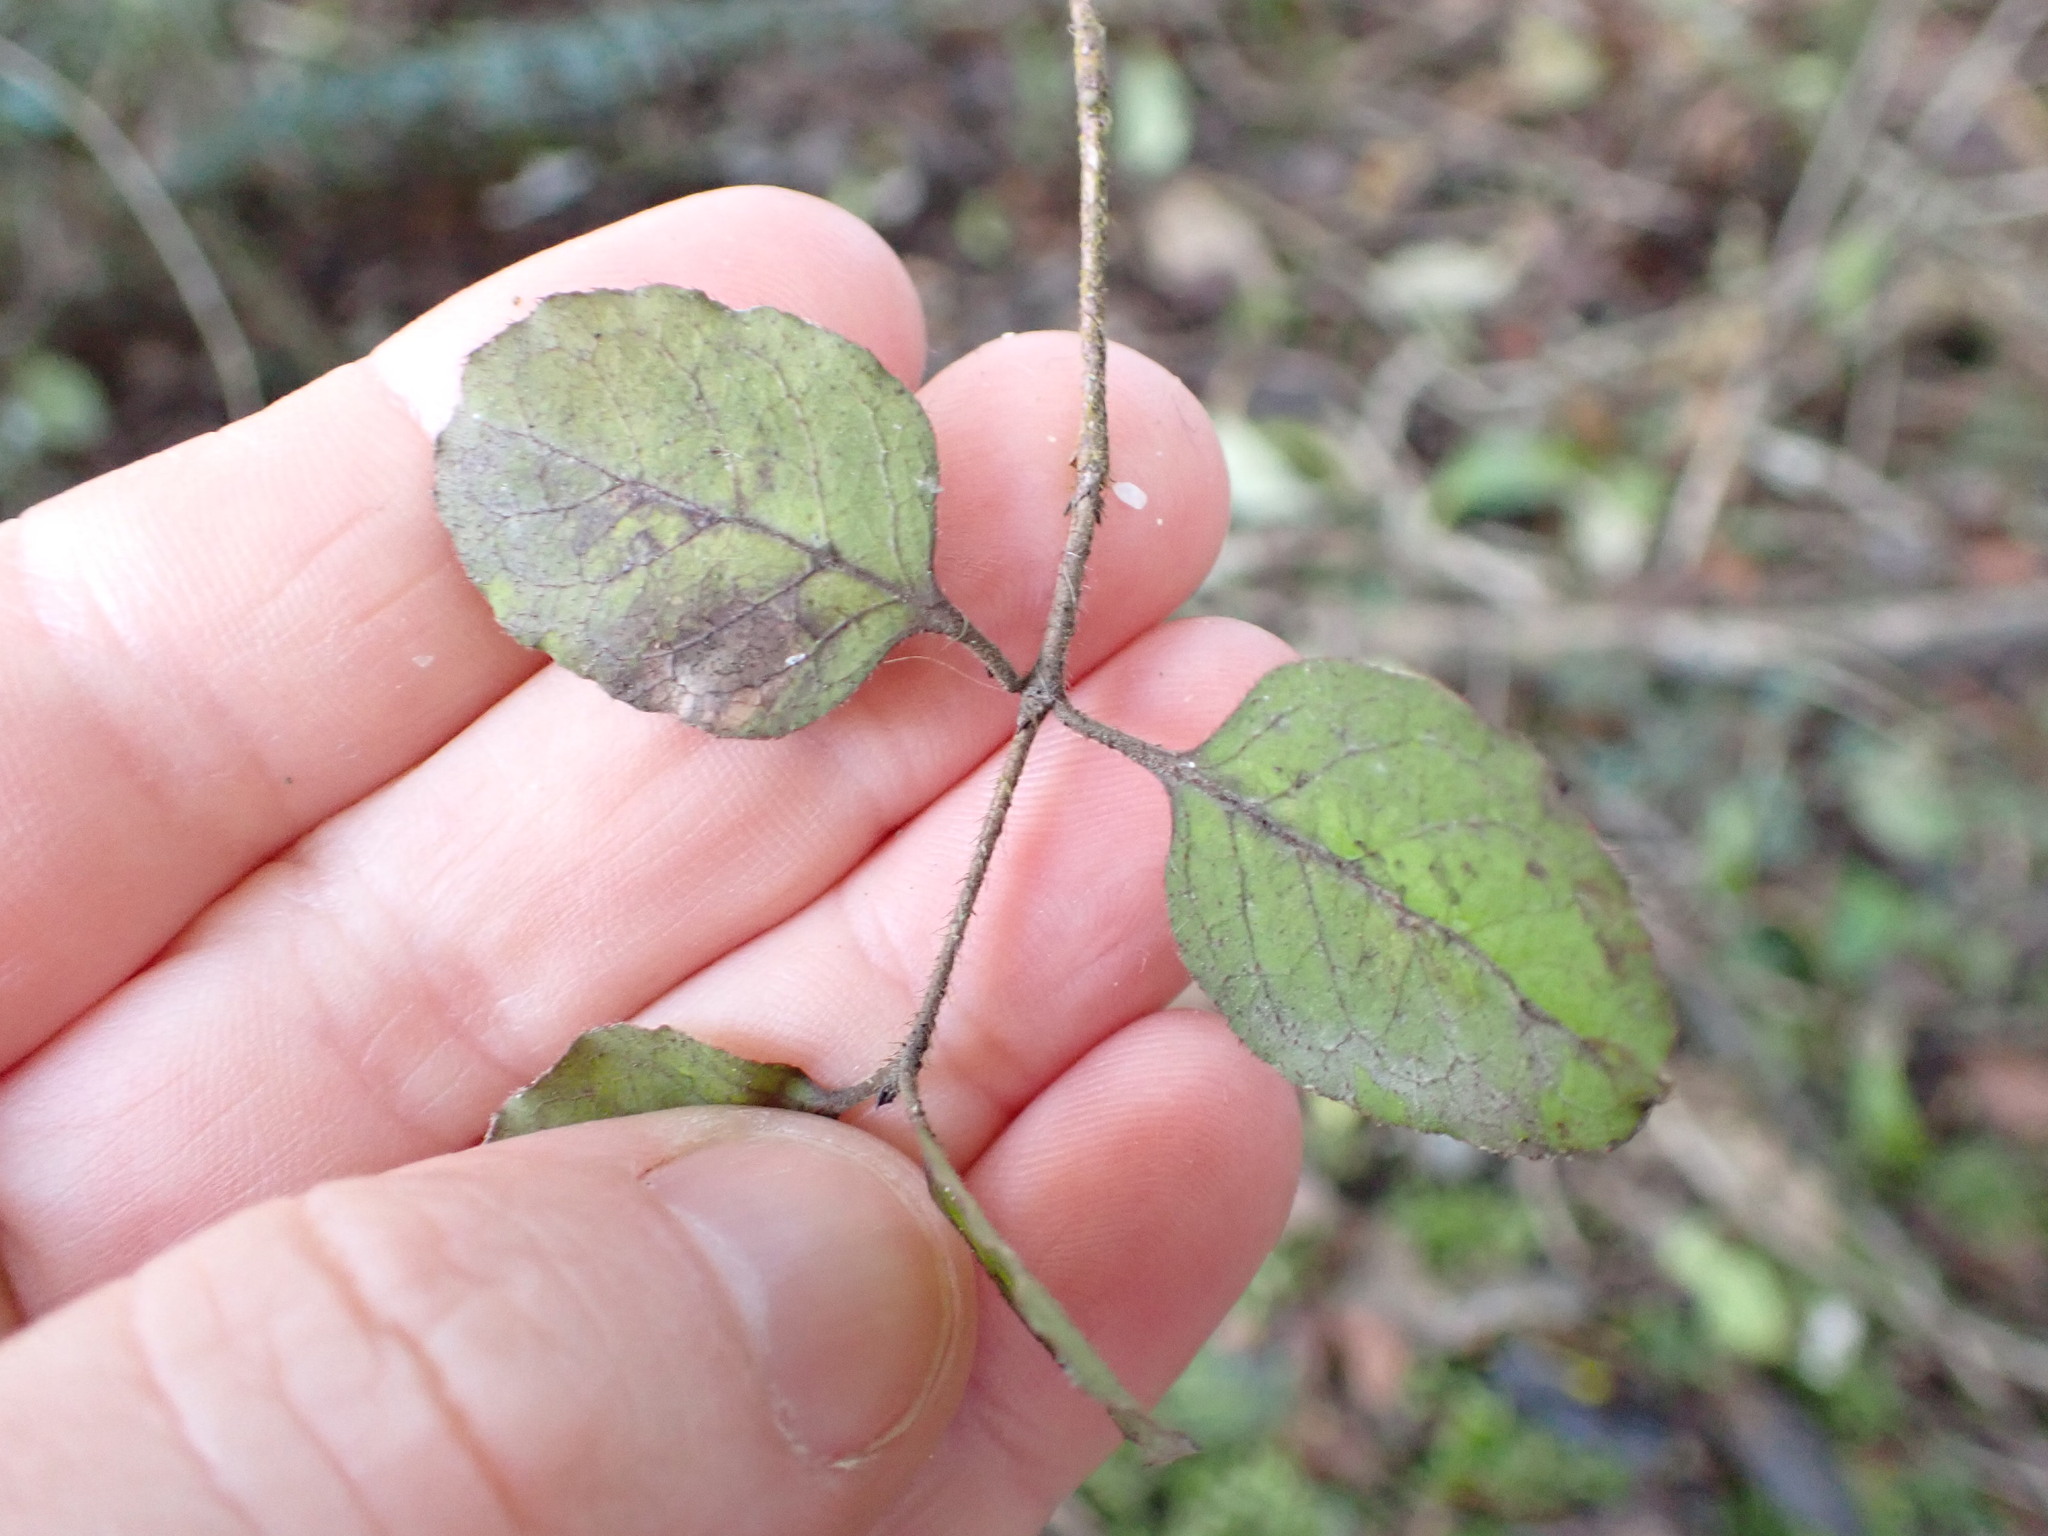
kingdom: Plantae
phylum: Tracheophyta
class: Magnoliopsida
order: Gentianales
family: Rubiaceae
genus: Coprosma
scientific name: Coprosma rotundifolia
